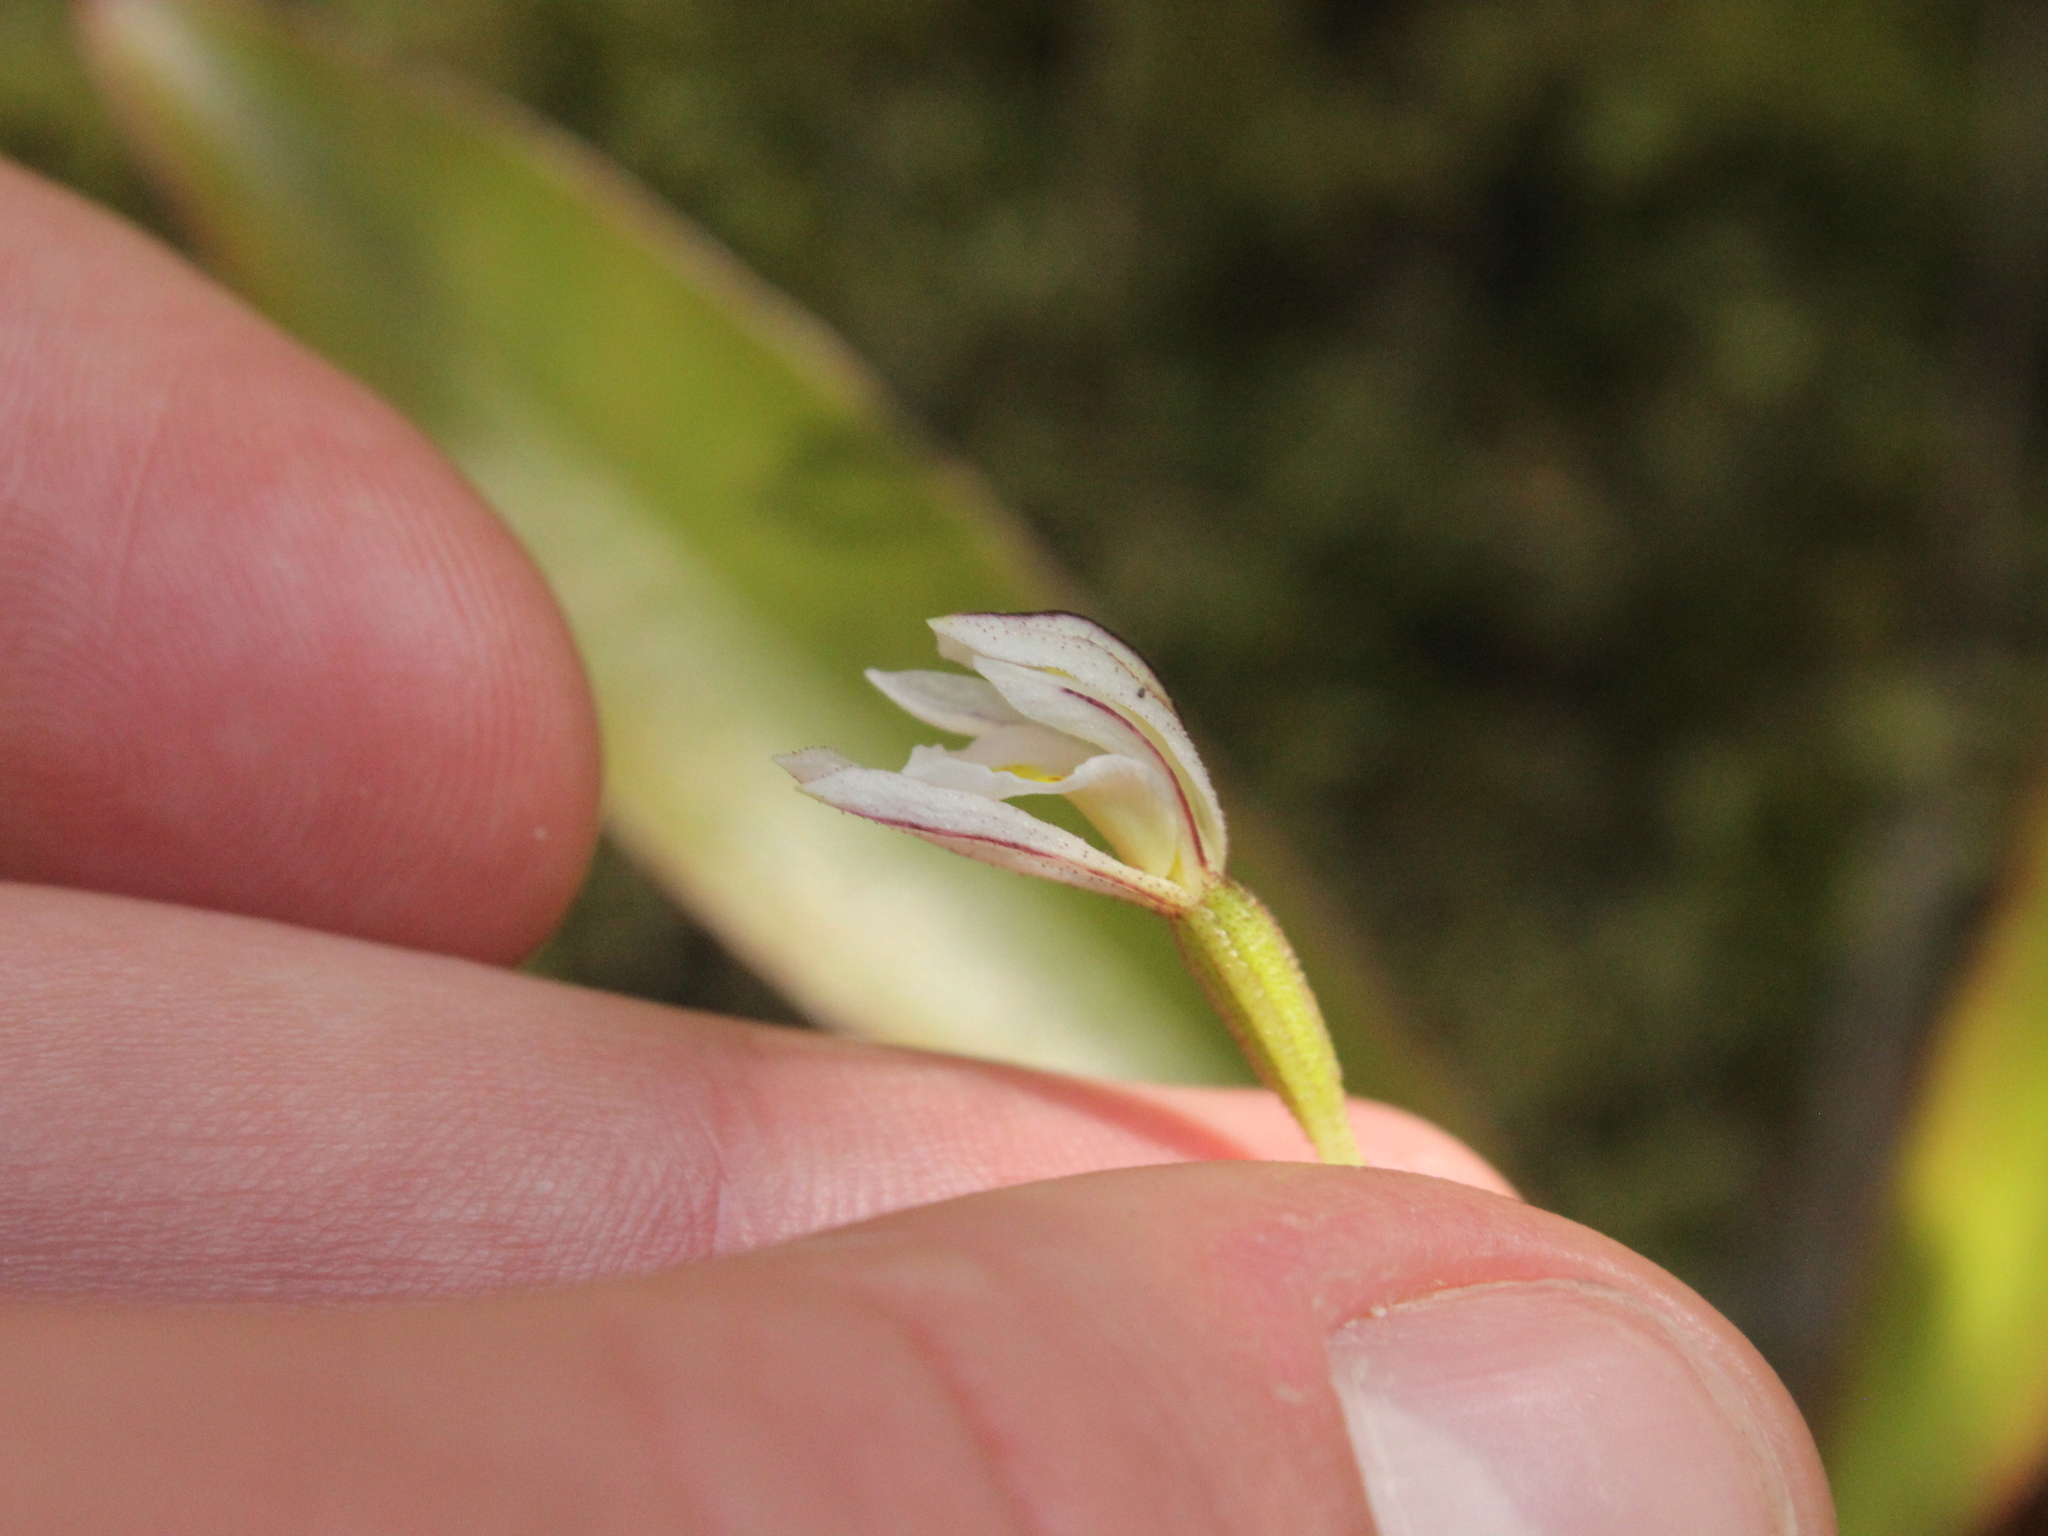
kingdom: Plantae
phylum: Tracheophyta
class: Liliopsida
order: Asparagales
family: Orchidaceae
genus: Aporostylis
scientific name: Aporostylis bifolia
